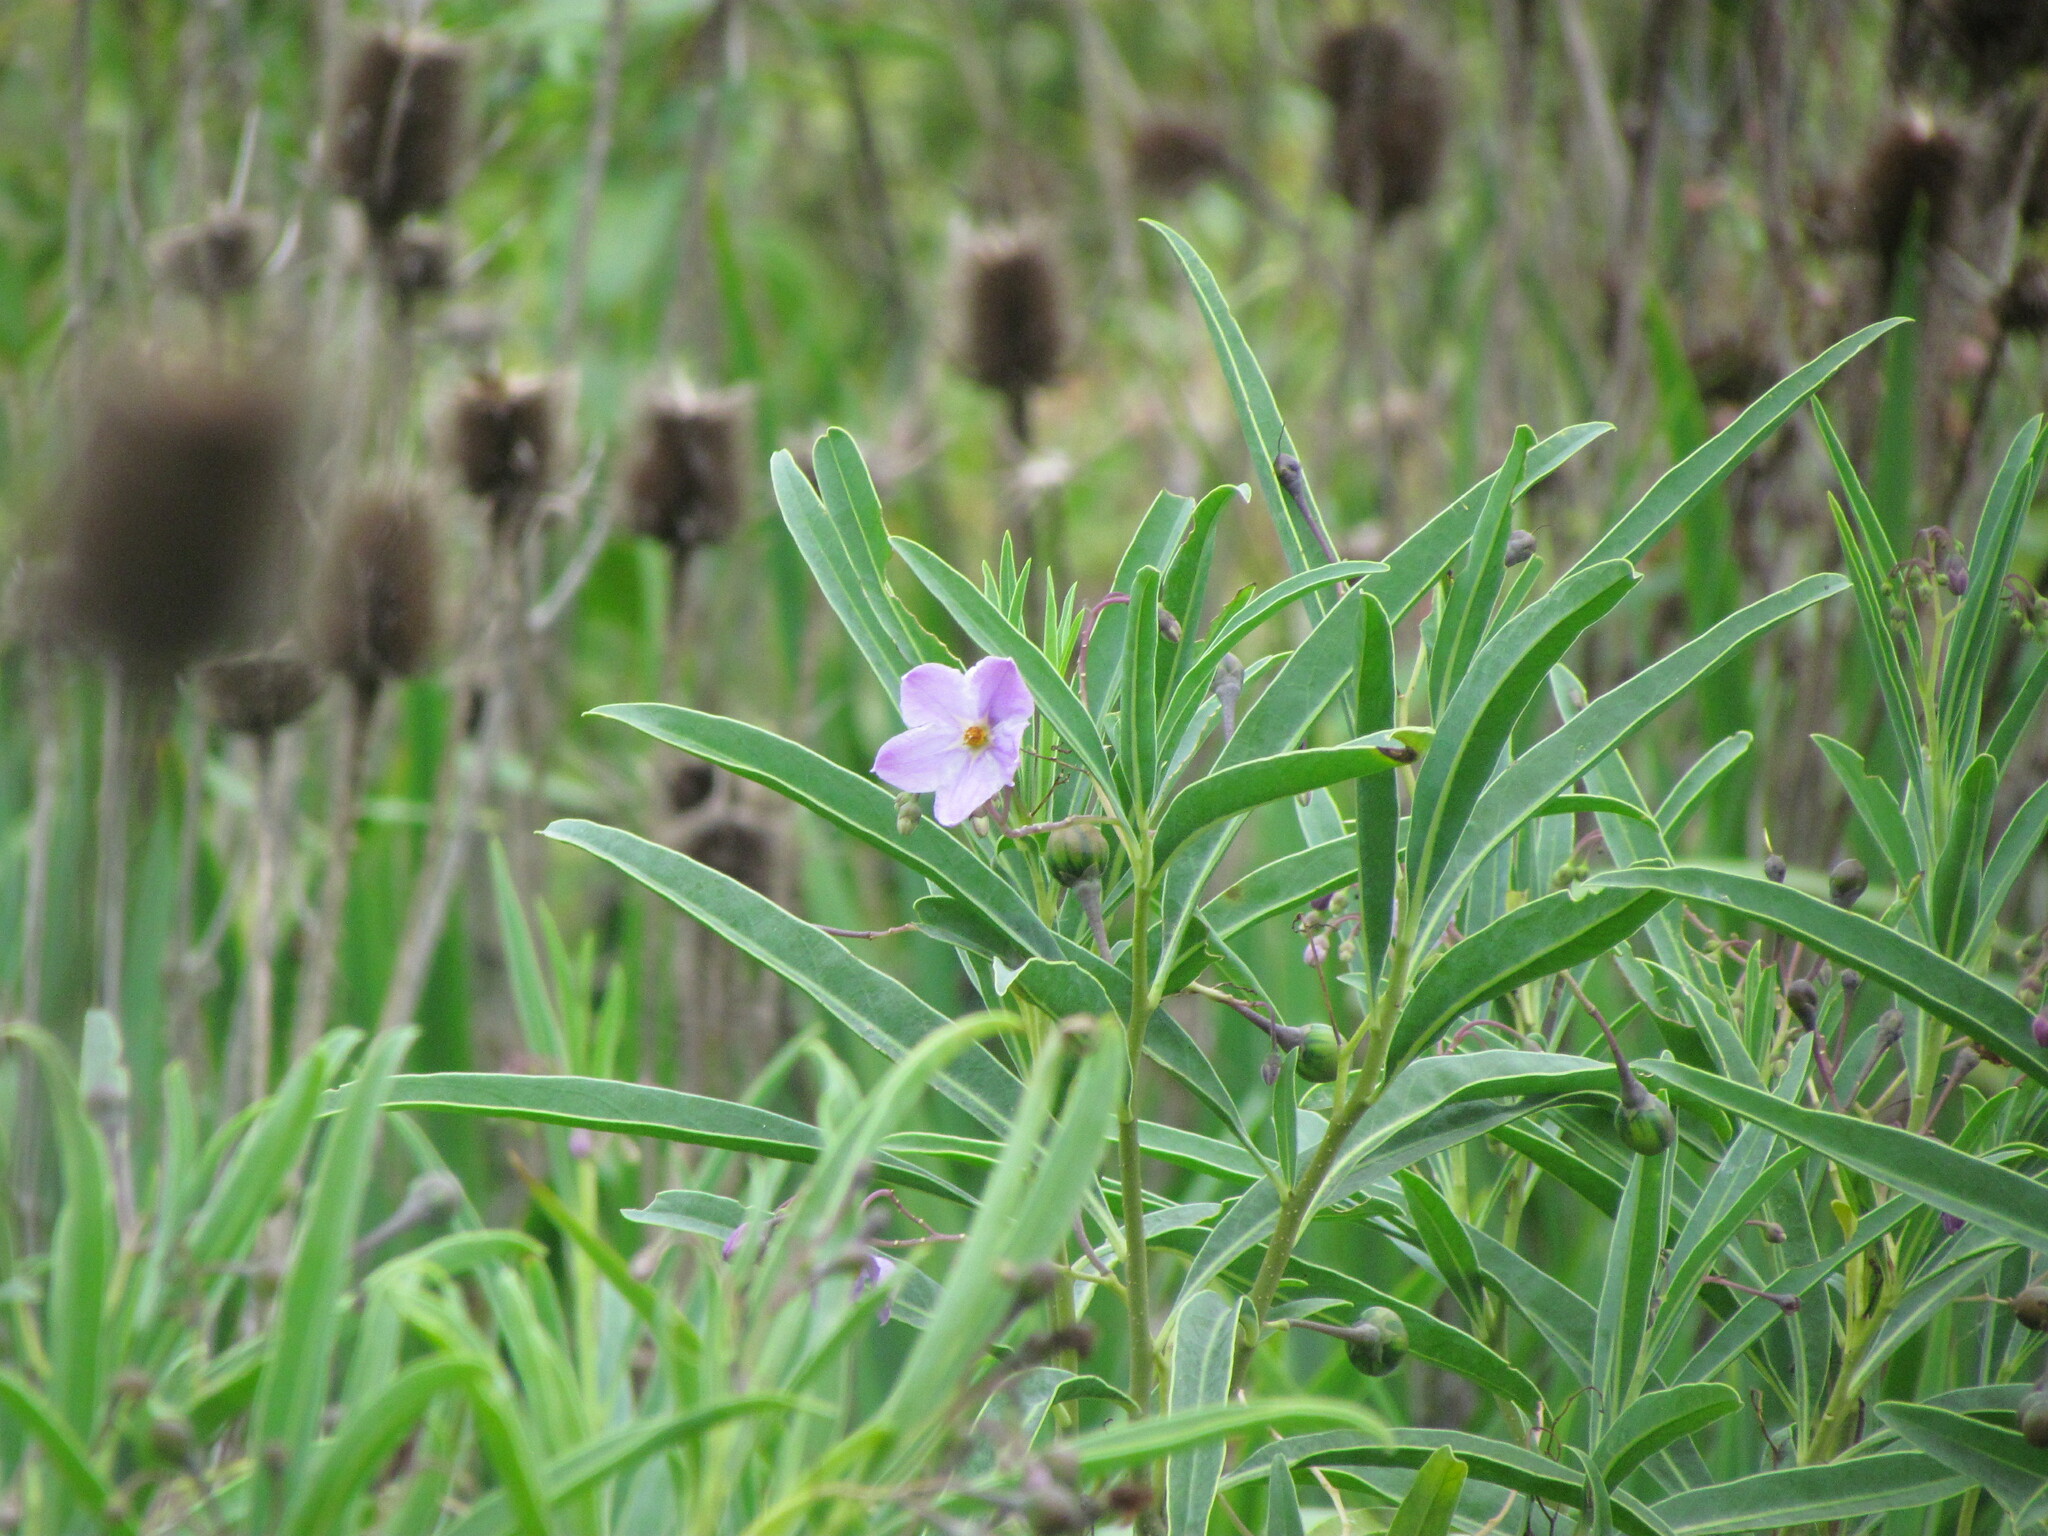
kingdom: Plantae
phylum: Tracheophyta
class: Magnoliopsida
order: Solanales
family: Solanaceae
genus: Solanum
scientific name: Solanum glaucophyllum
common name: Waxyleaf nightshade
